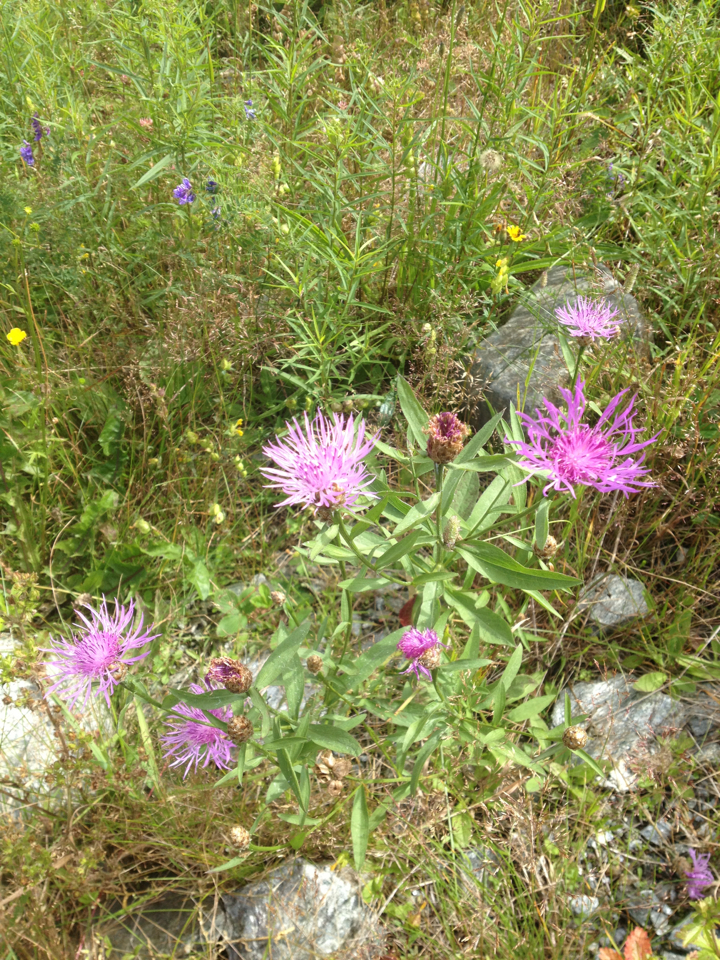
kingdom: Plantae
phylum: Tracheophyta
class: Magnoliopsida
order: Asterales
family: Asteraceae
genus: Centaurea
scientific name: Centaurea jacea
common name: Brown knapweed
